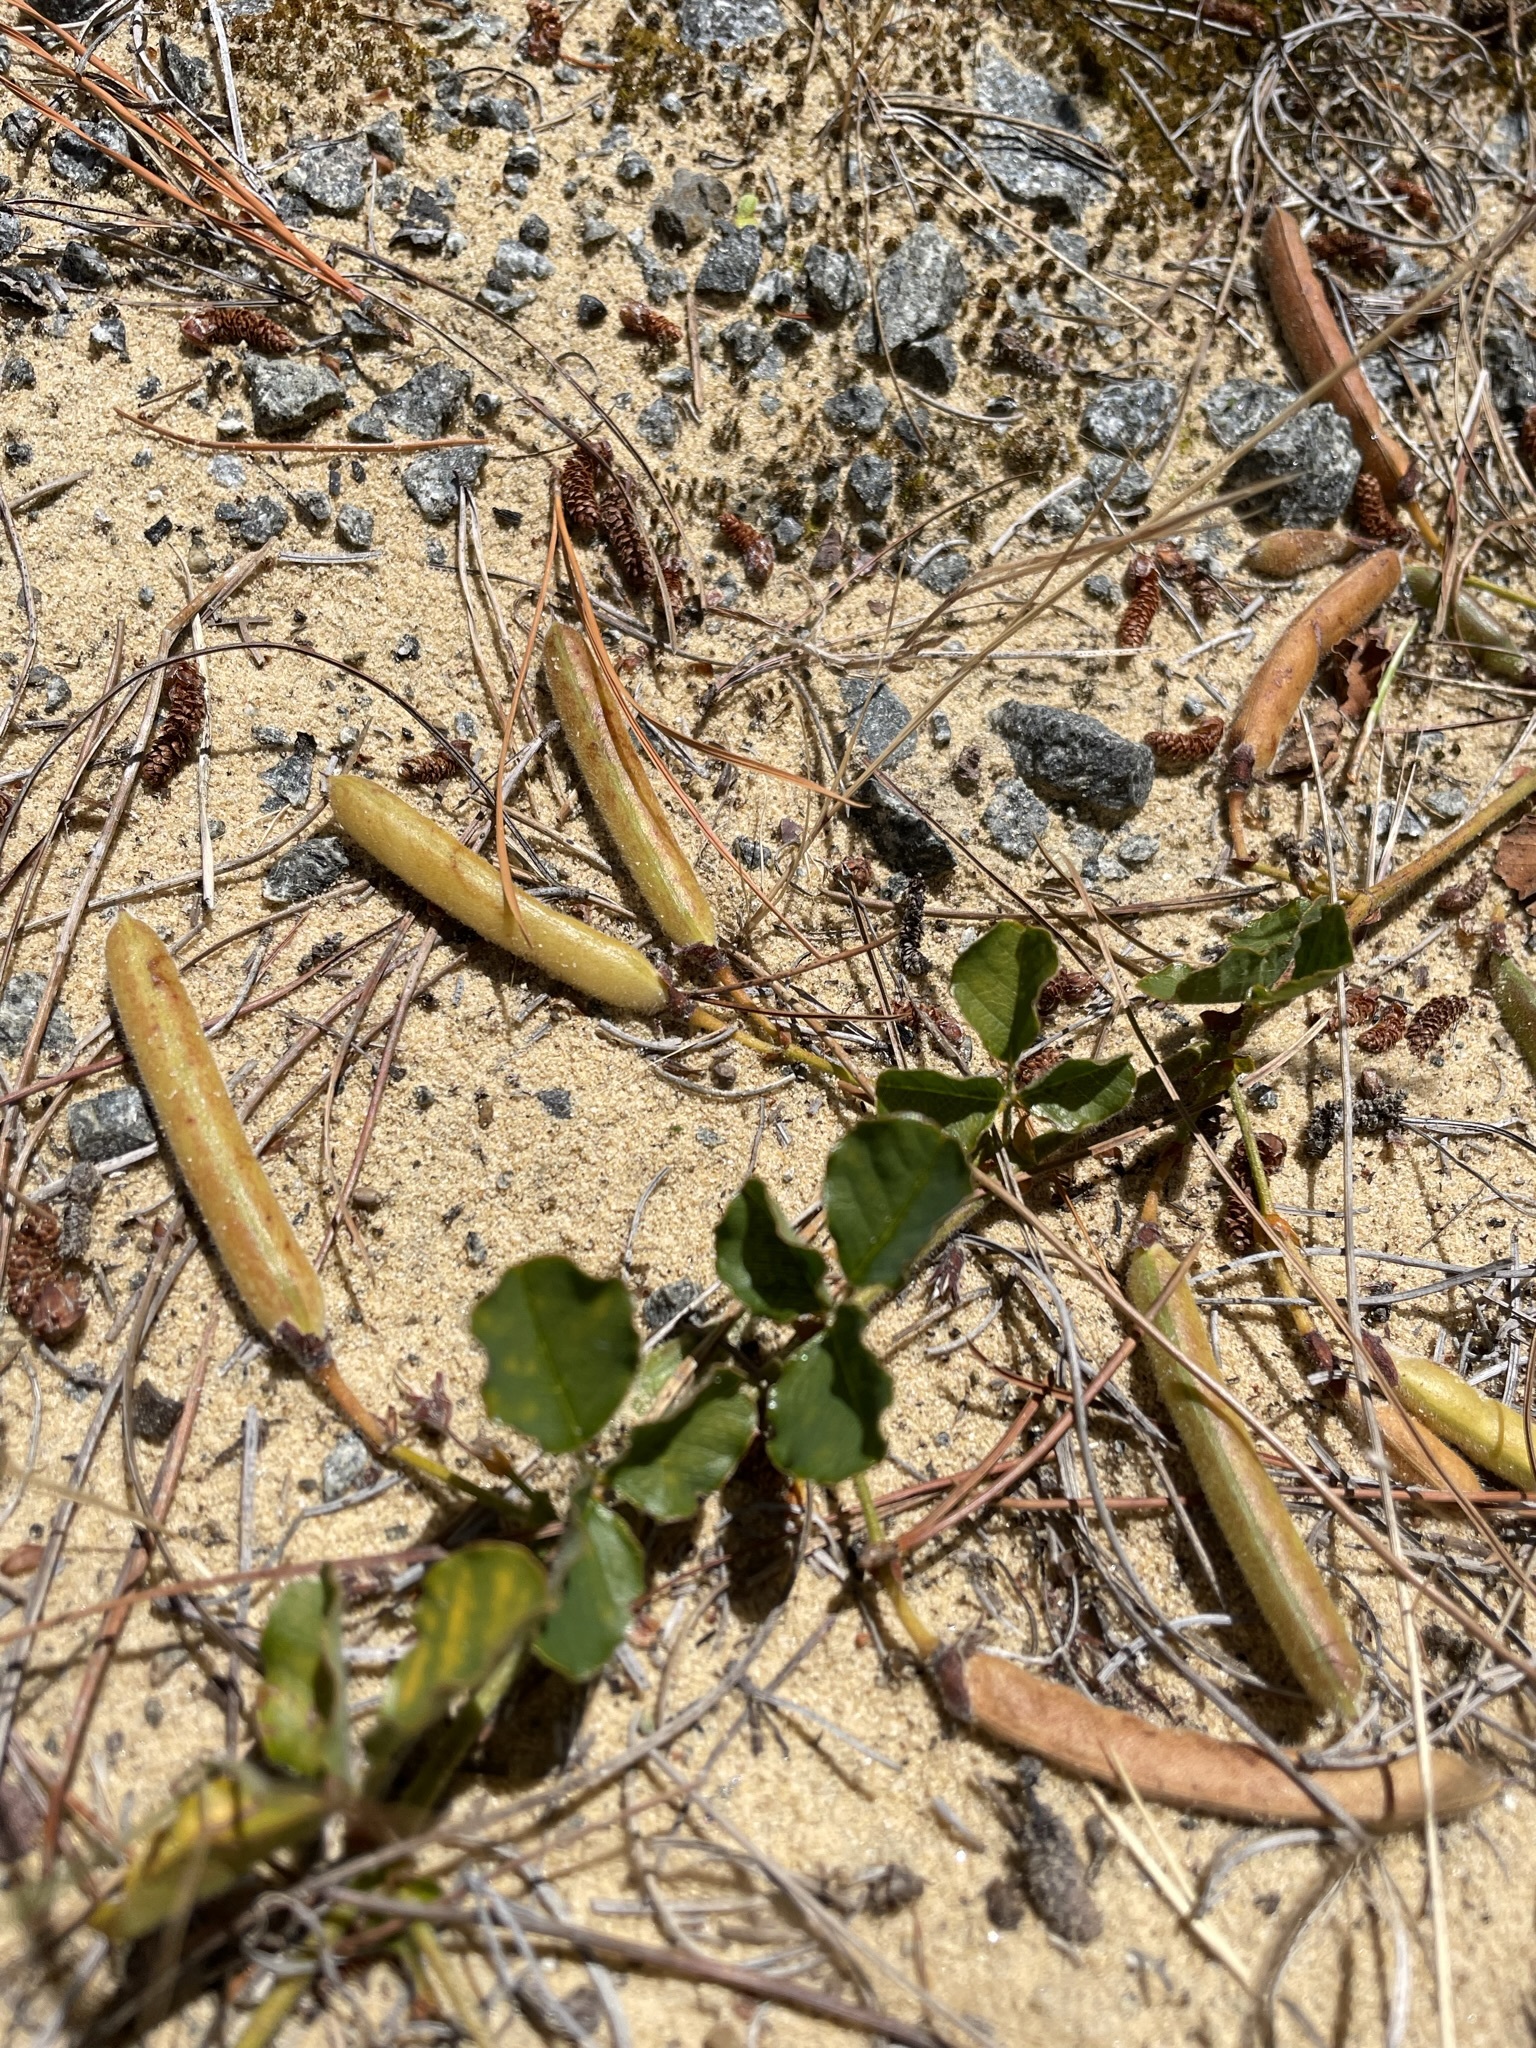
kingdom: Plantae
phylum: Tracheophyta
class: Magnoliopsida
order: Fabales
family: Fabaceae
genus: Kennedia
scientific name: Kennedia prostrata
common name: Running-postman
